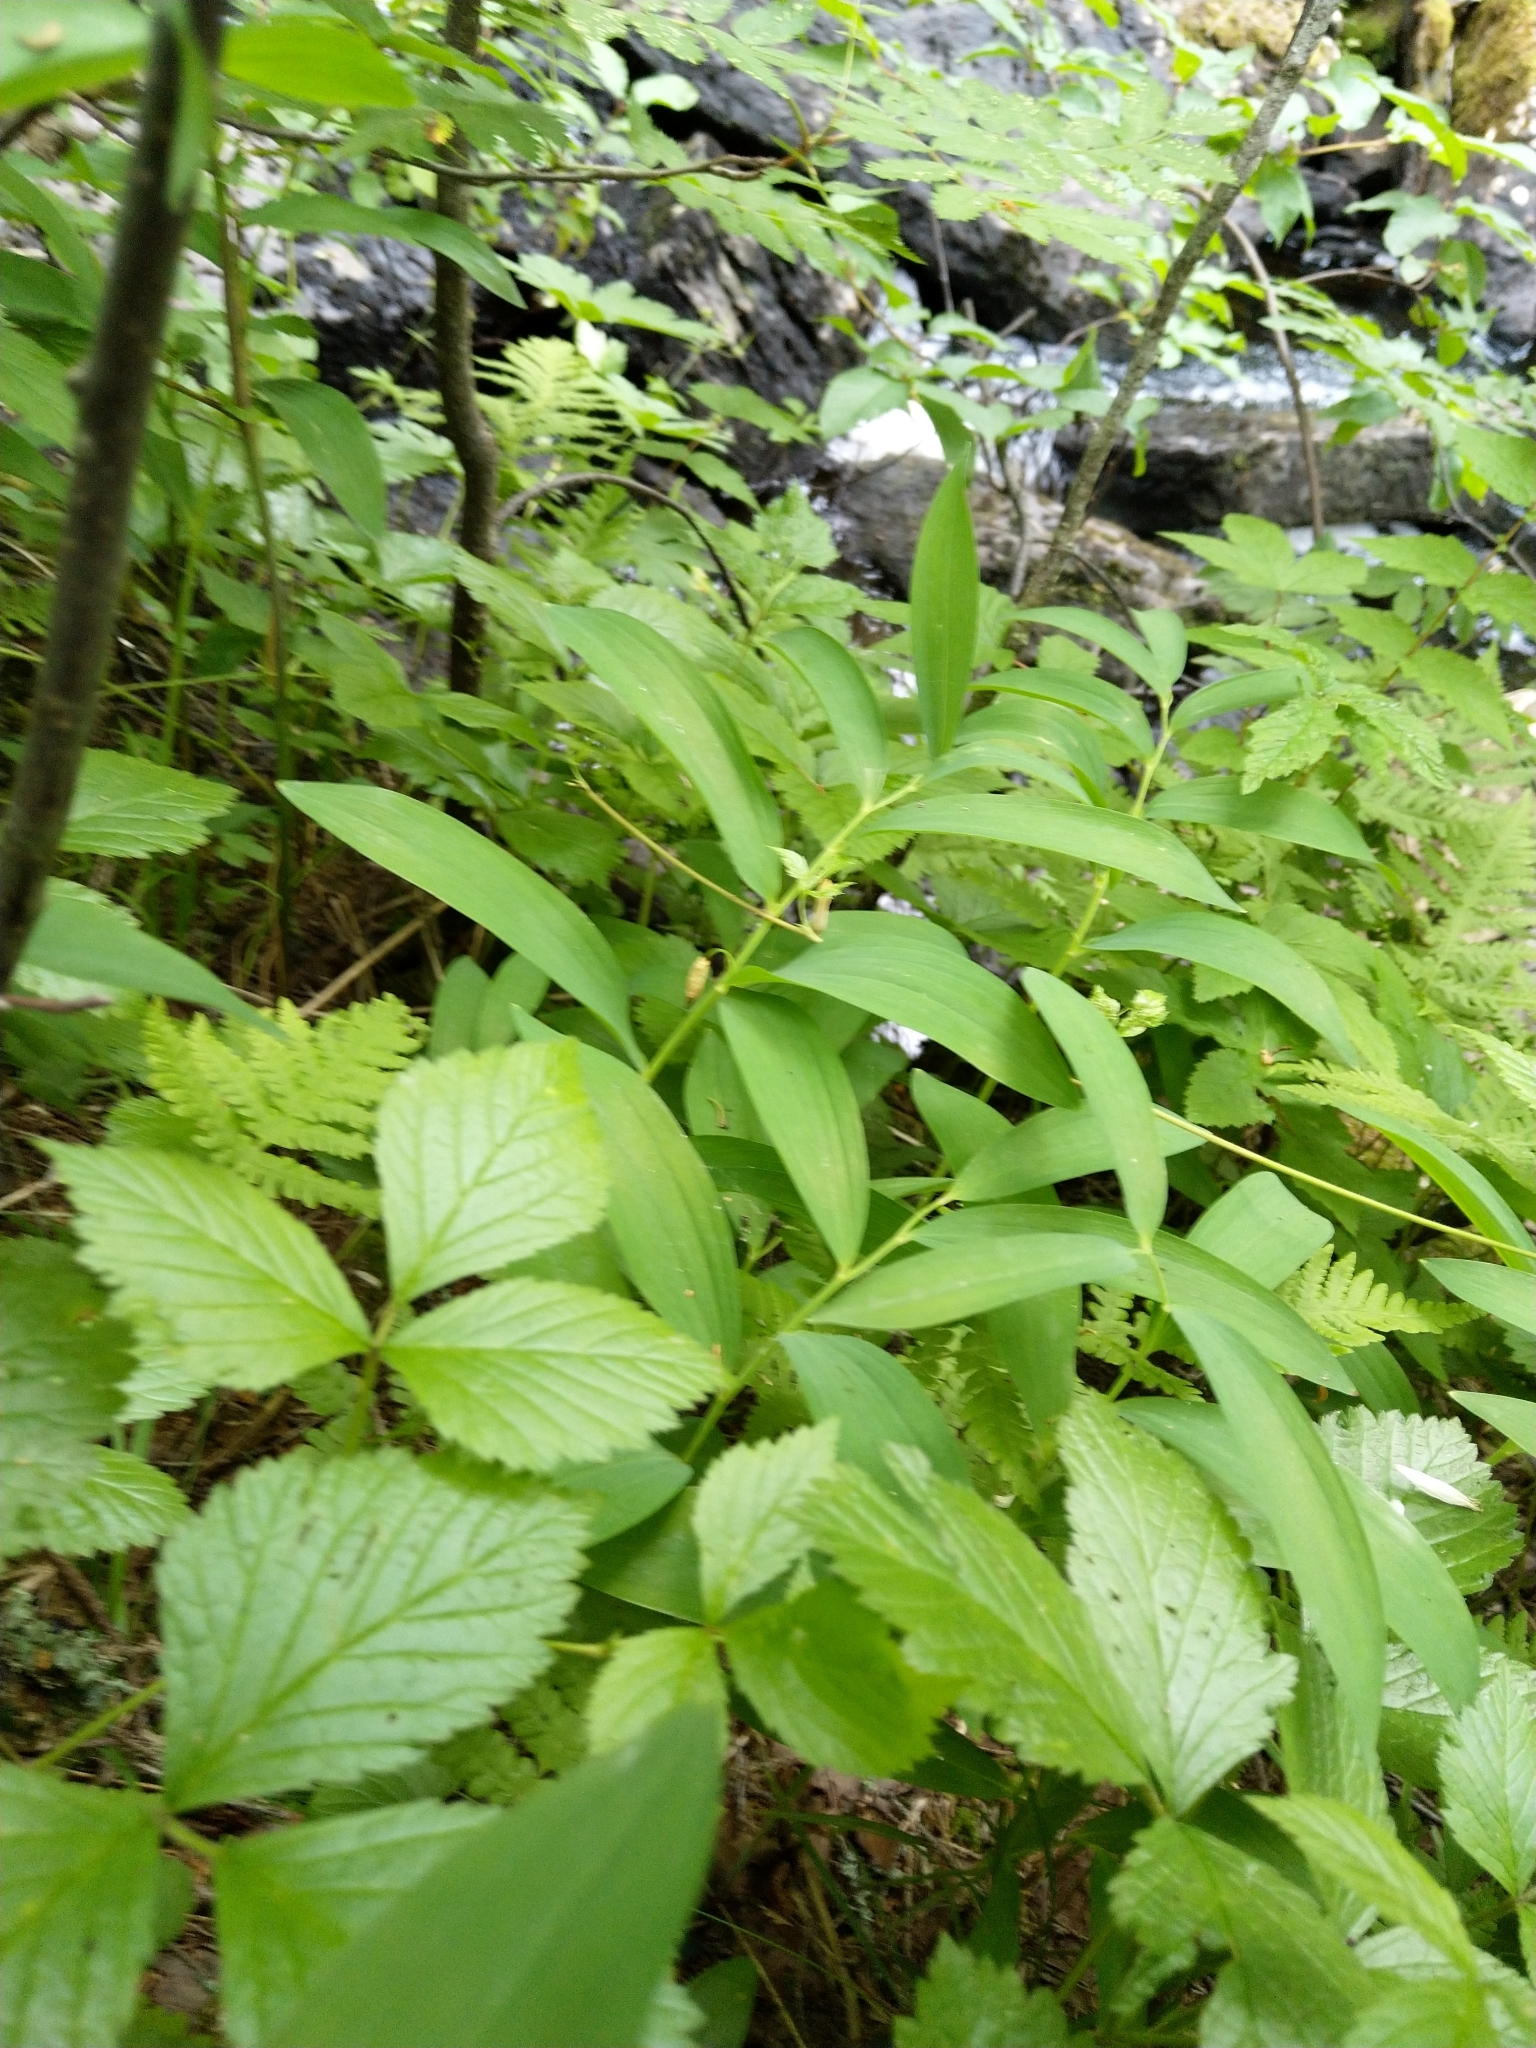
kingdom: Plantae
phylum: Tracheophyta
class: Liliopsida
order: Asparagales
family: Asparagaceae
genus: Polygonatum
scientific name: Polygonatum odoratum
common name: Angular solomon's-seal
